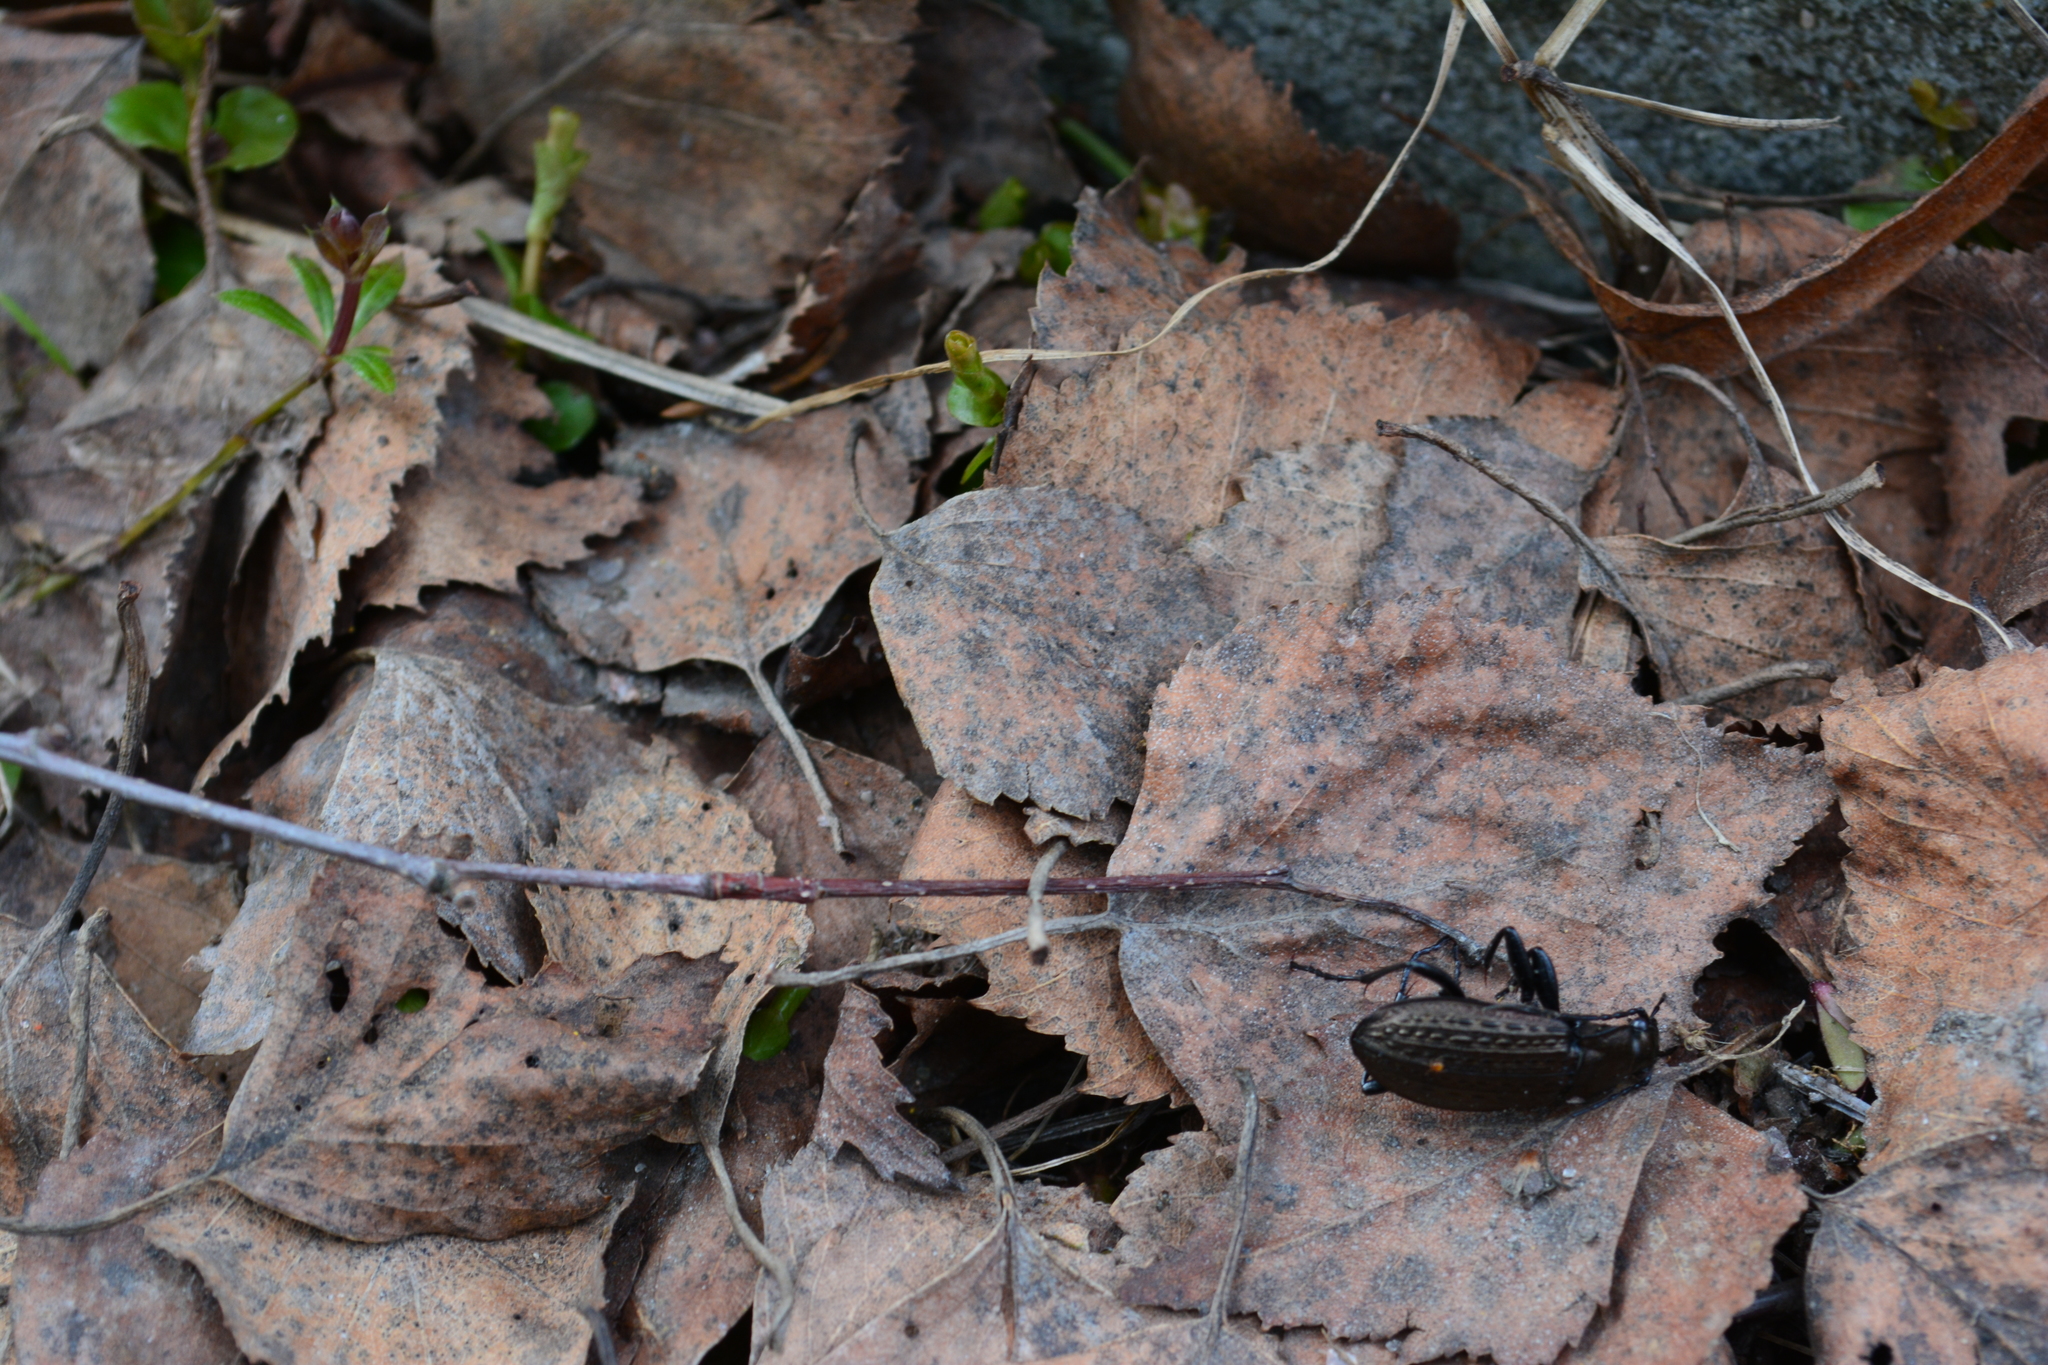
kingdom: Animalia
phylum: Arthropoda
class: Insecta
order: Coleoptera
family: Carabidae
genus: Carabus
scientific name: Carabus granulatus
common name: Granulate ground beetle
